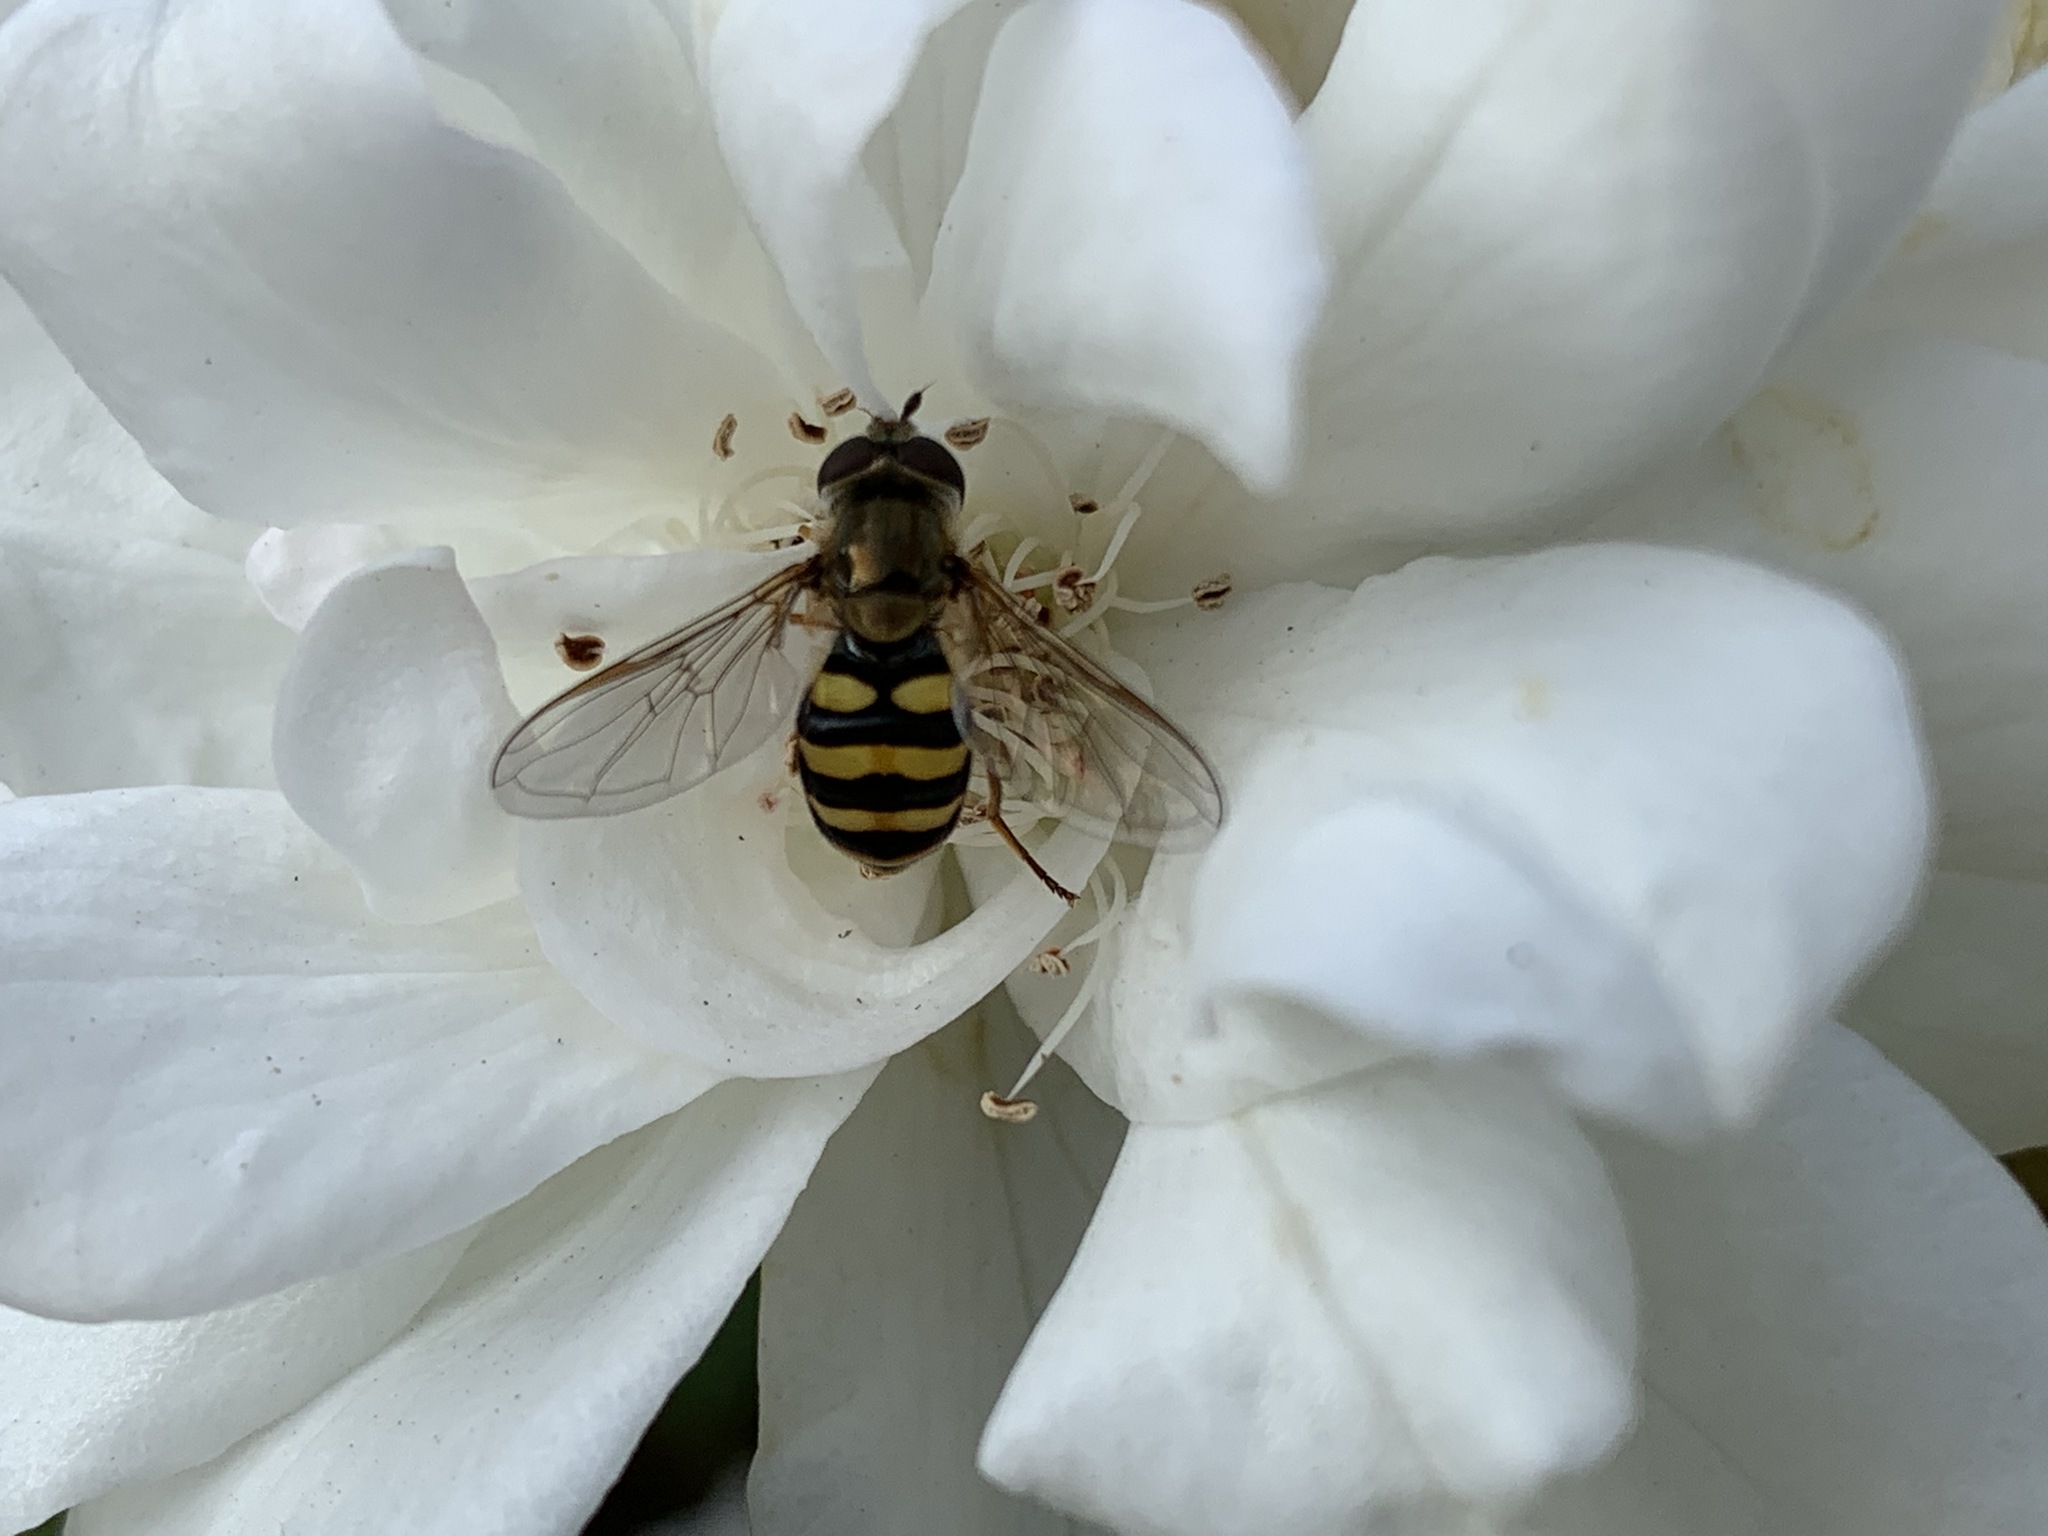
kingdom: Animalia
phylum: Arthropoda
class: Insecta
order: Diptera
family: Syrphidae
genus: Eupeodes
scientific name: Eupeodes fumipennis
